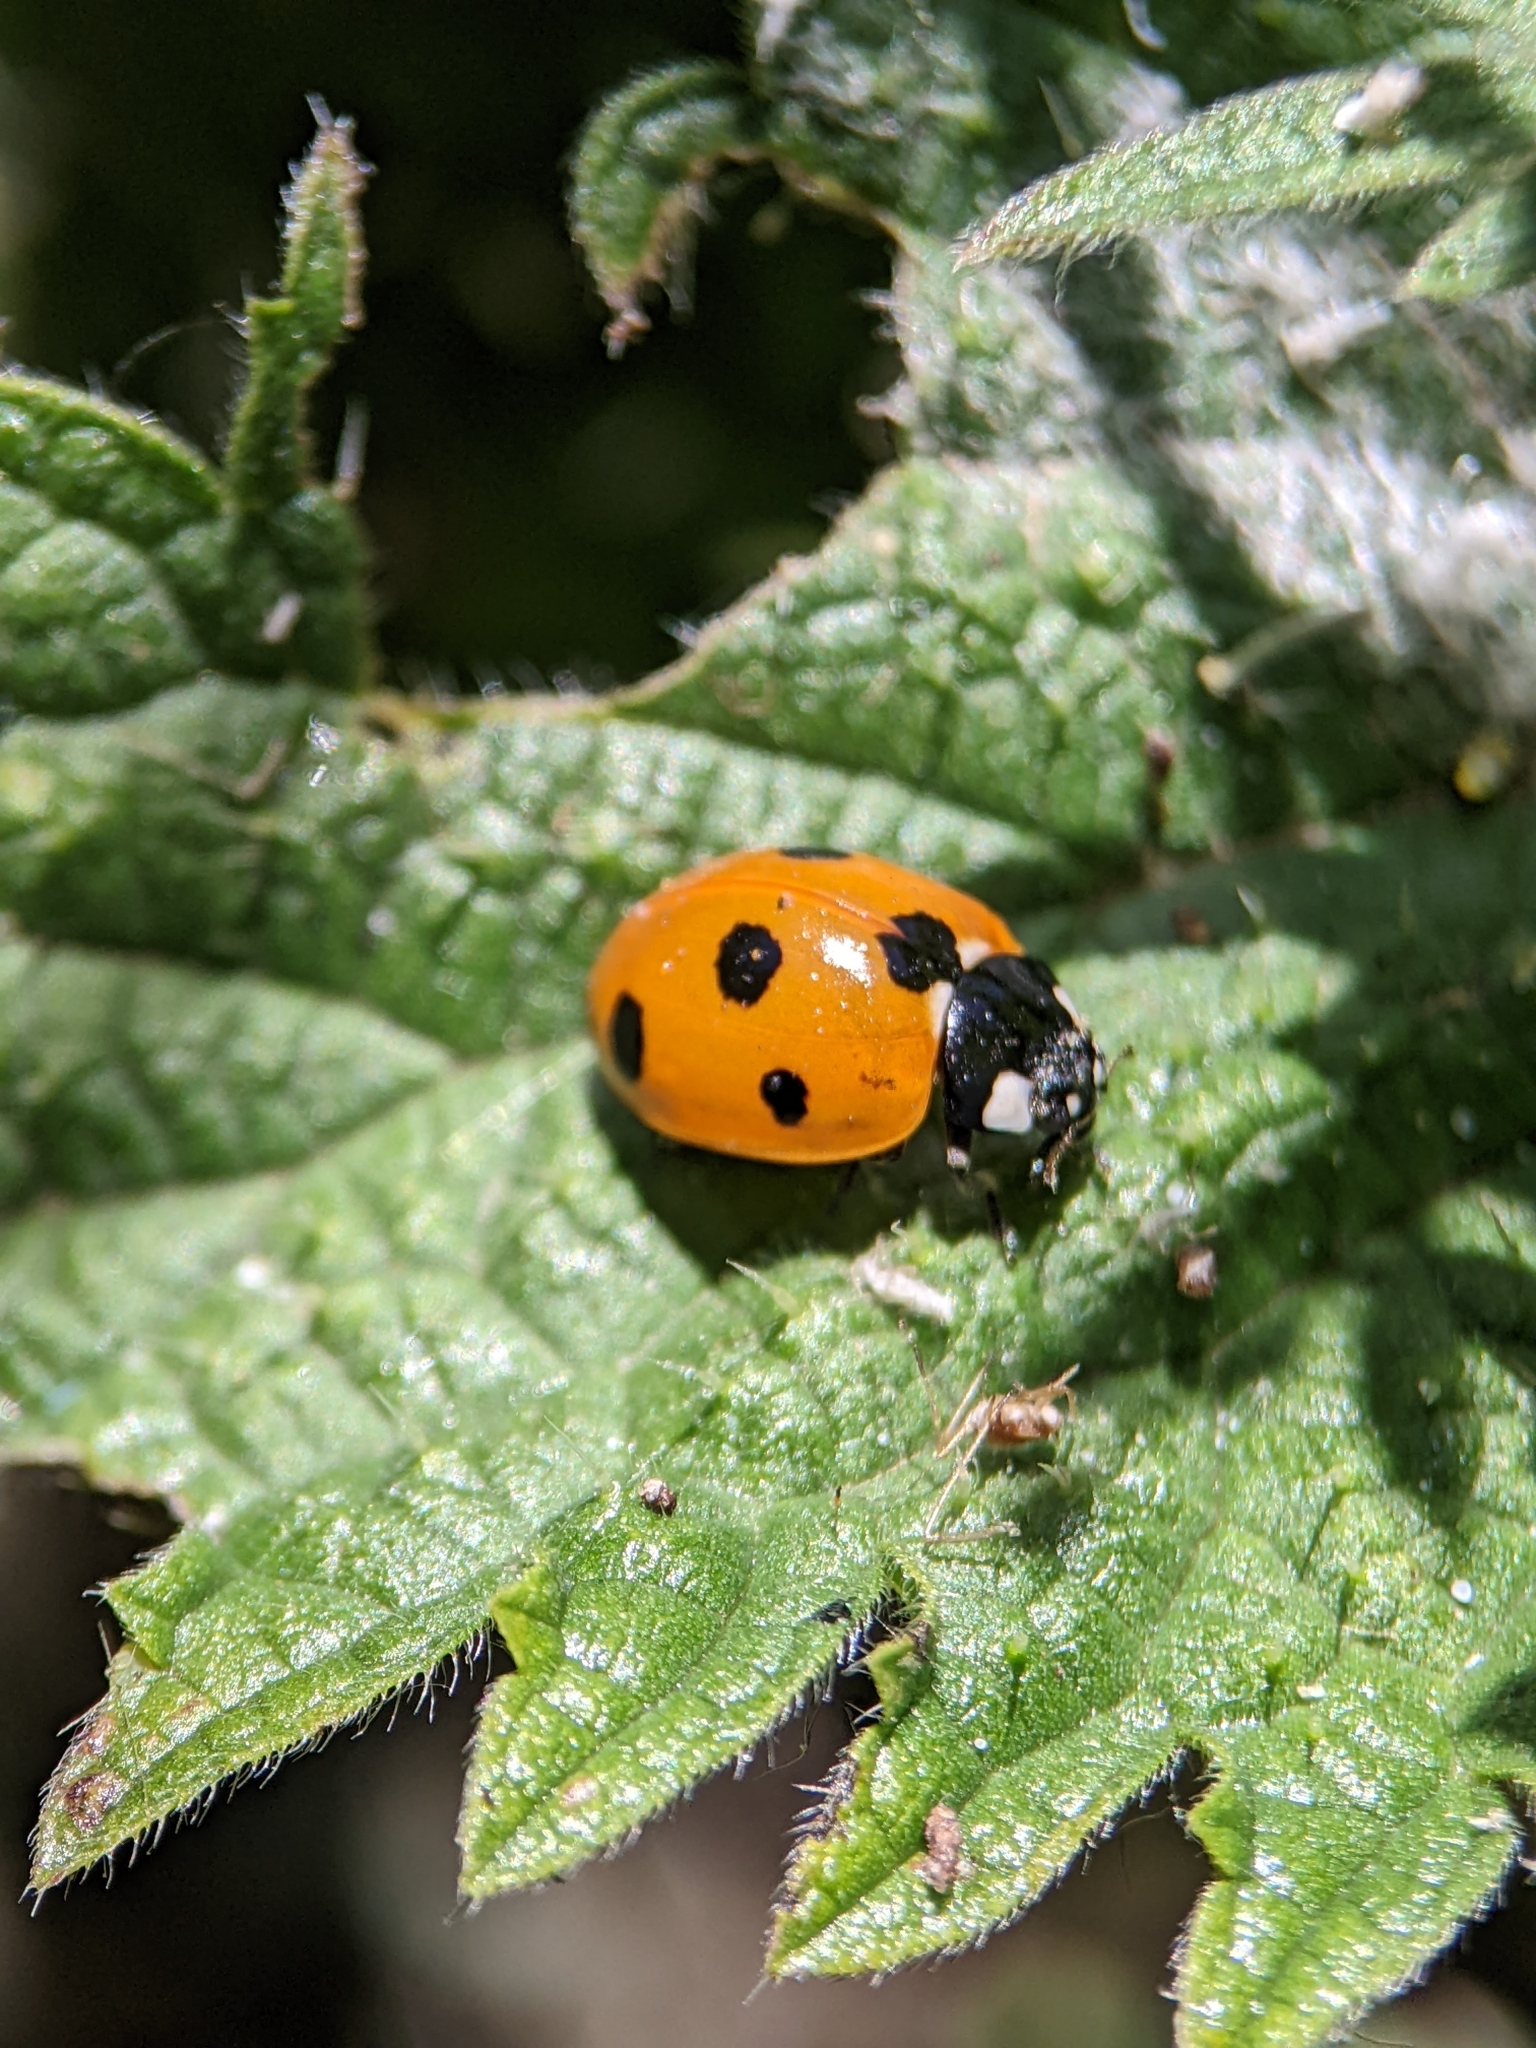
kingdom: Animalia
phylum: Arthropoda
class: Insecta
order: Coleoptera
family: Coccinellidae
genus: Coccinella
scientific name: Coccinella septempunctata
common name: Sevenspotted lady beetle
